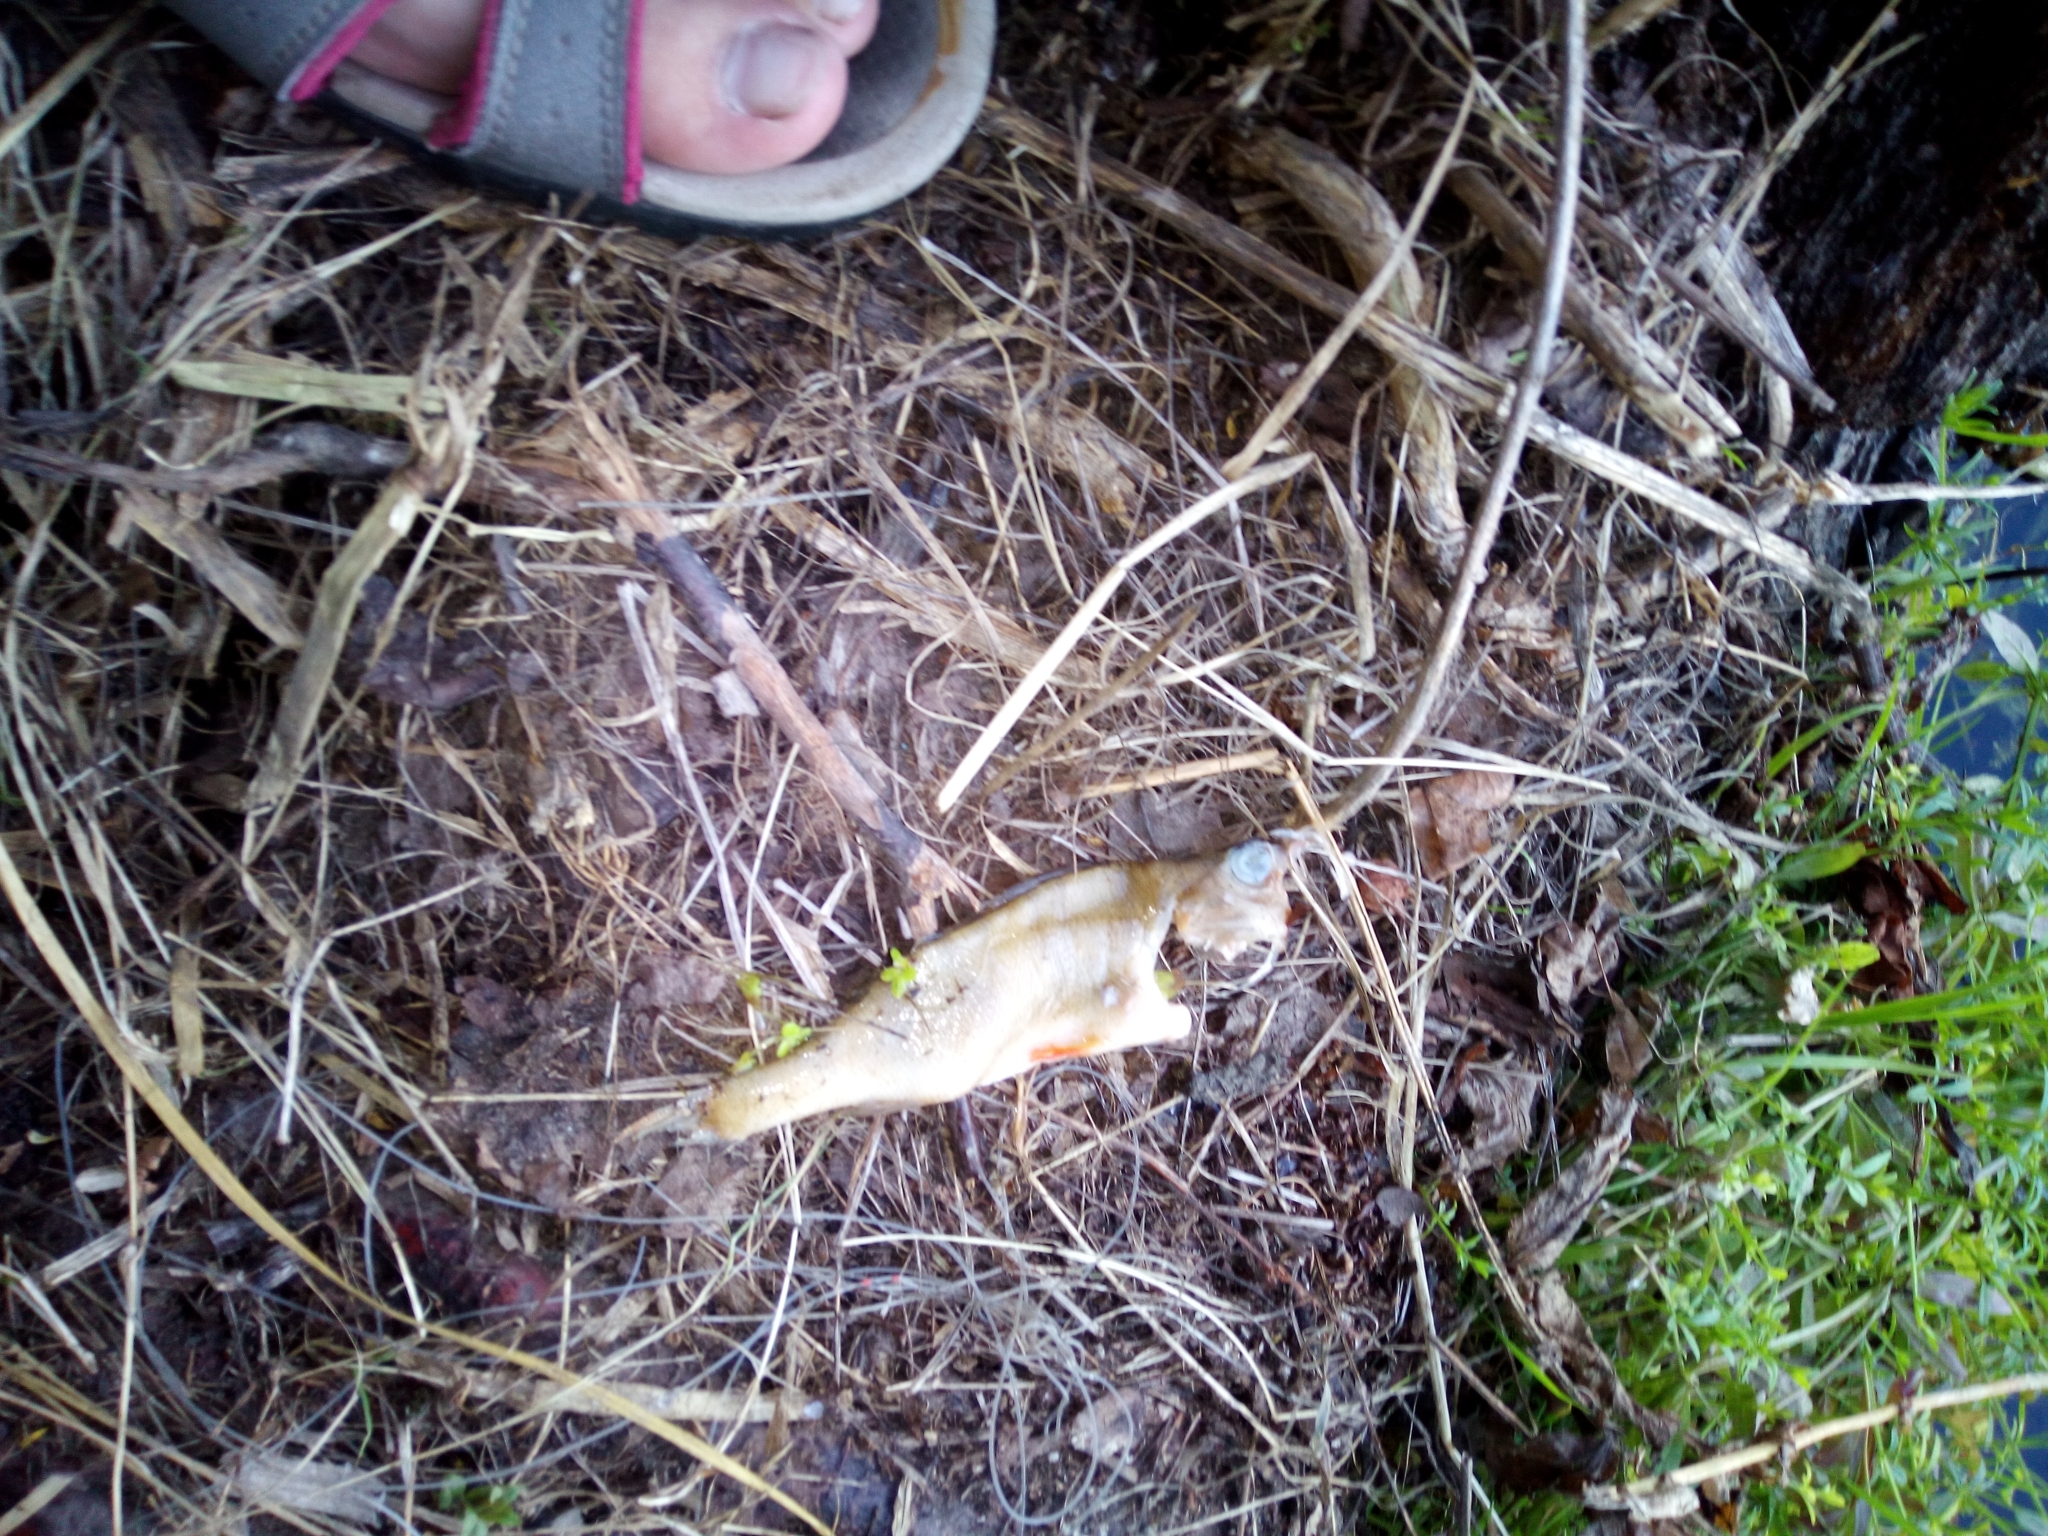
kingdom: Animalia
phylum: Chordata
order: Perciformes
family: Percidae
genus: Perca
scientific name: Perca fluviatilis
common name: Perch
